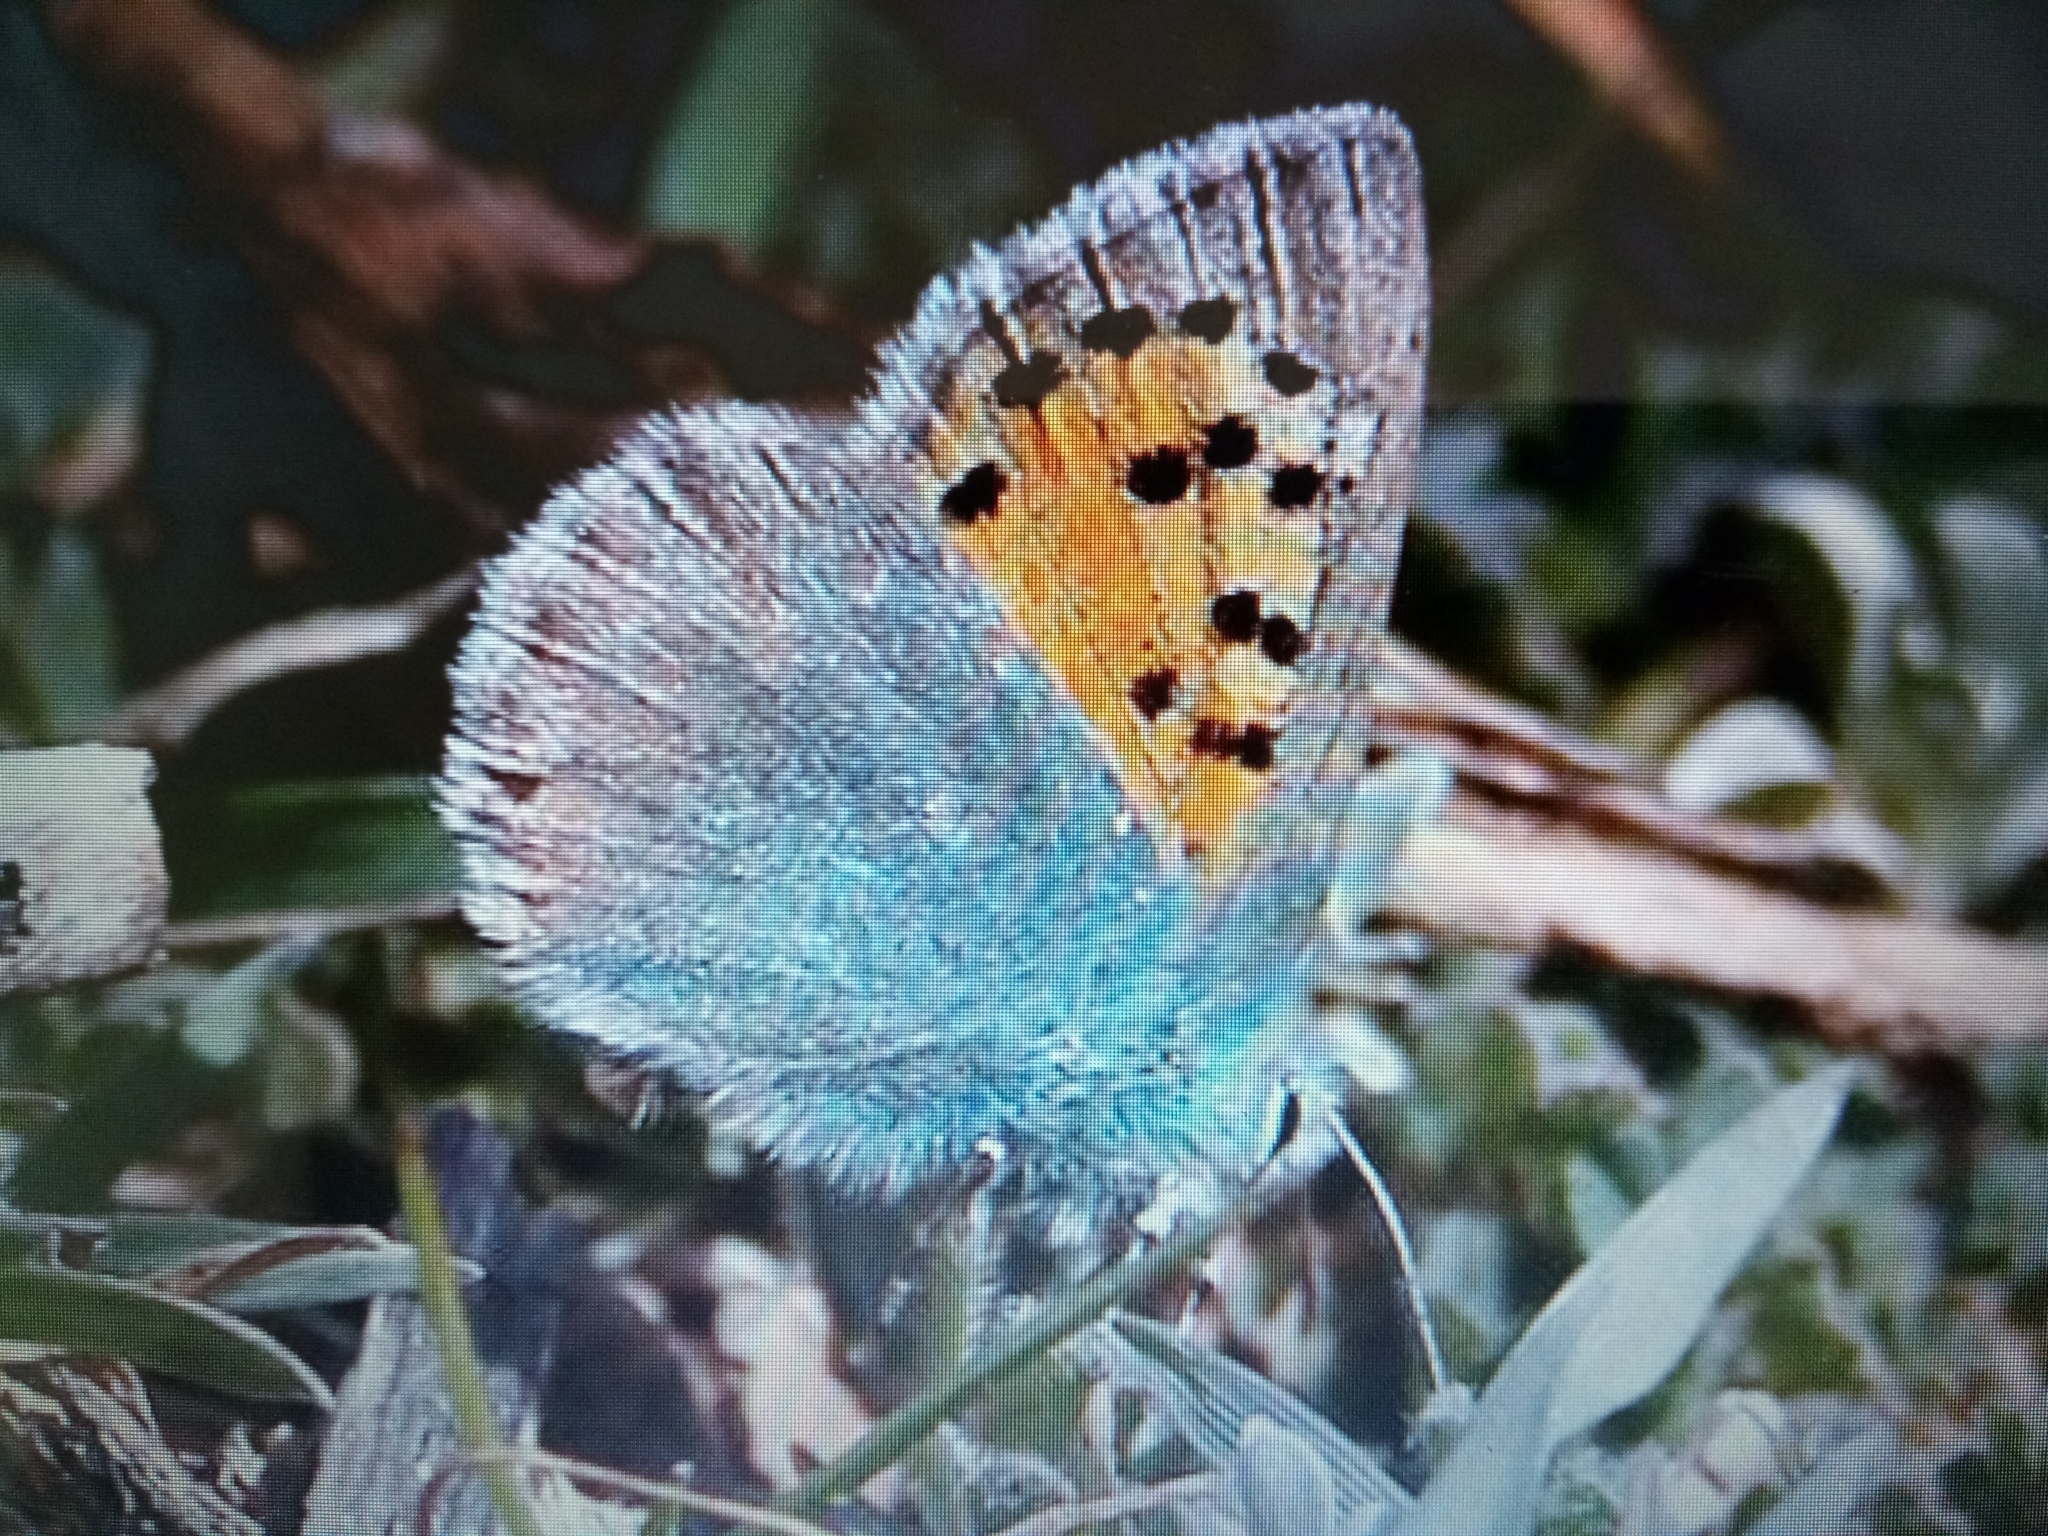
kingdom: Animalia
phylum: Arthropoda
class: Insecta
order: Lepidoptera
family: Lycaenidae
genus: Tomares
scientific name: Tomares ballus
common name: Provence hairstreak
